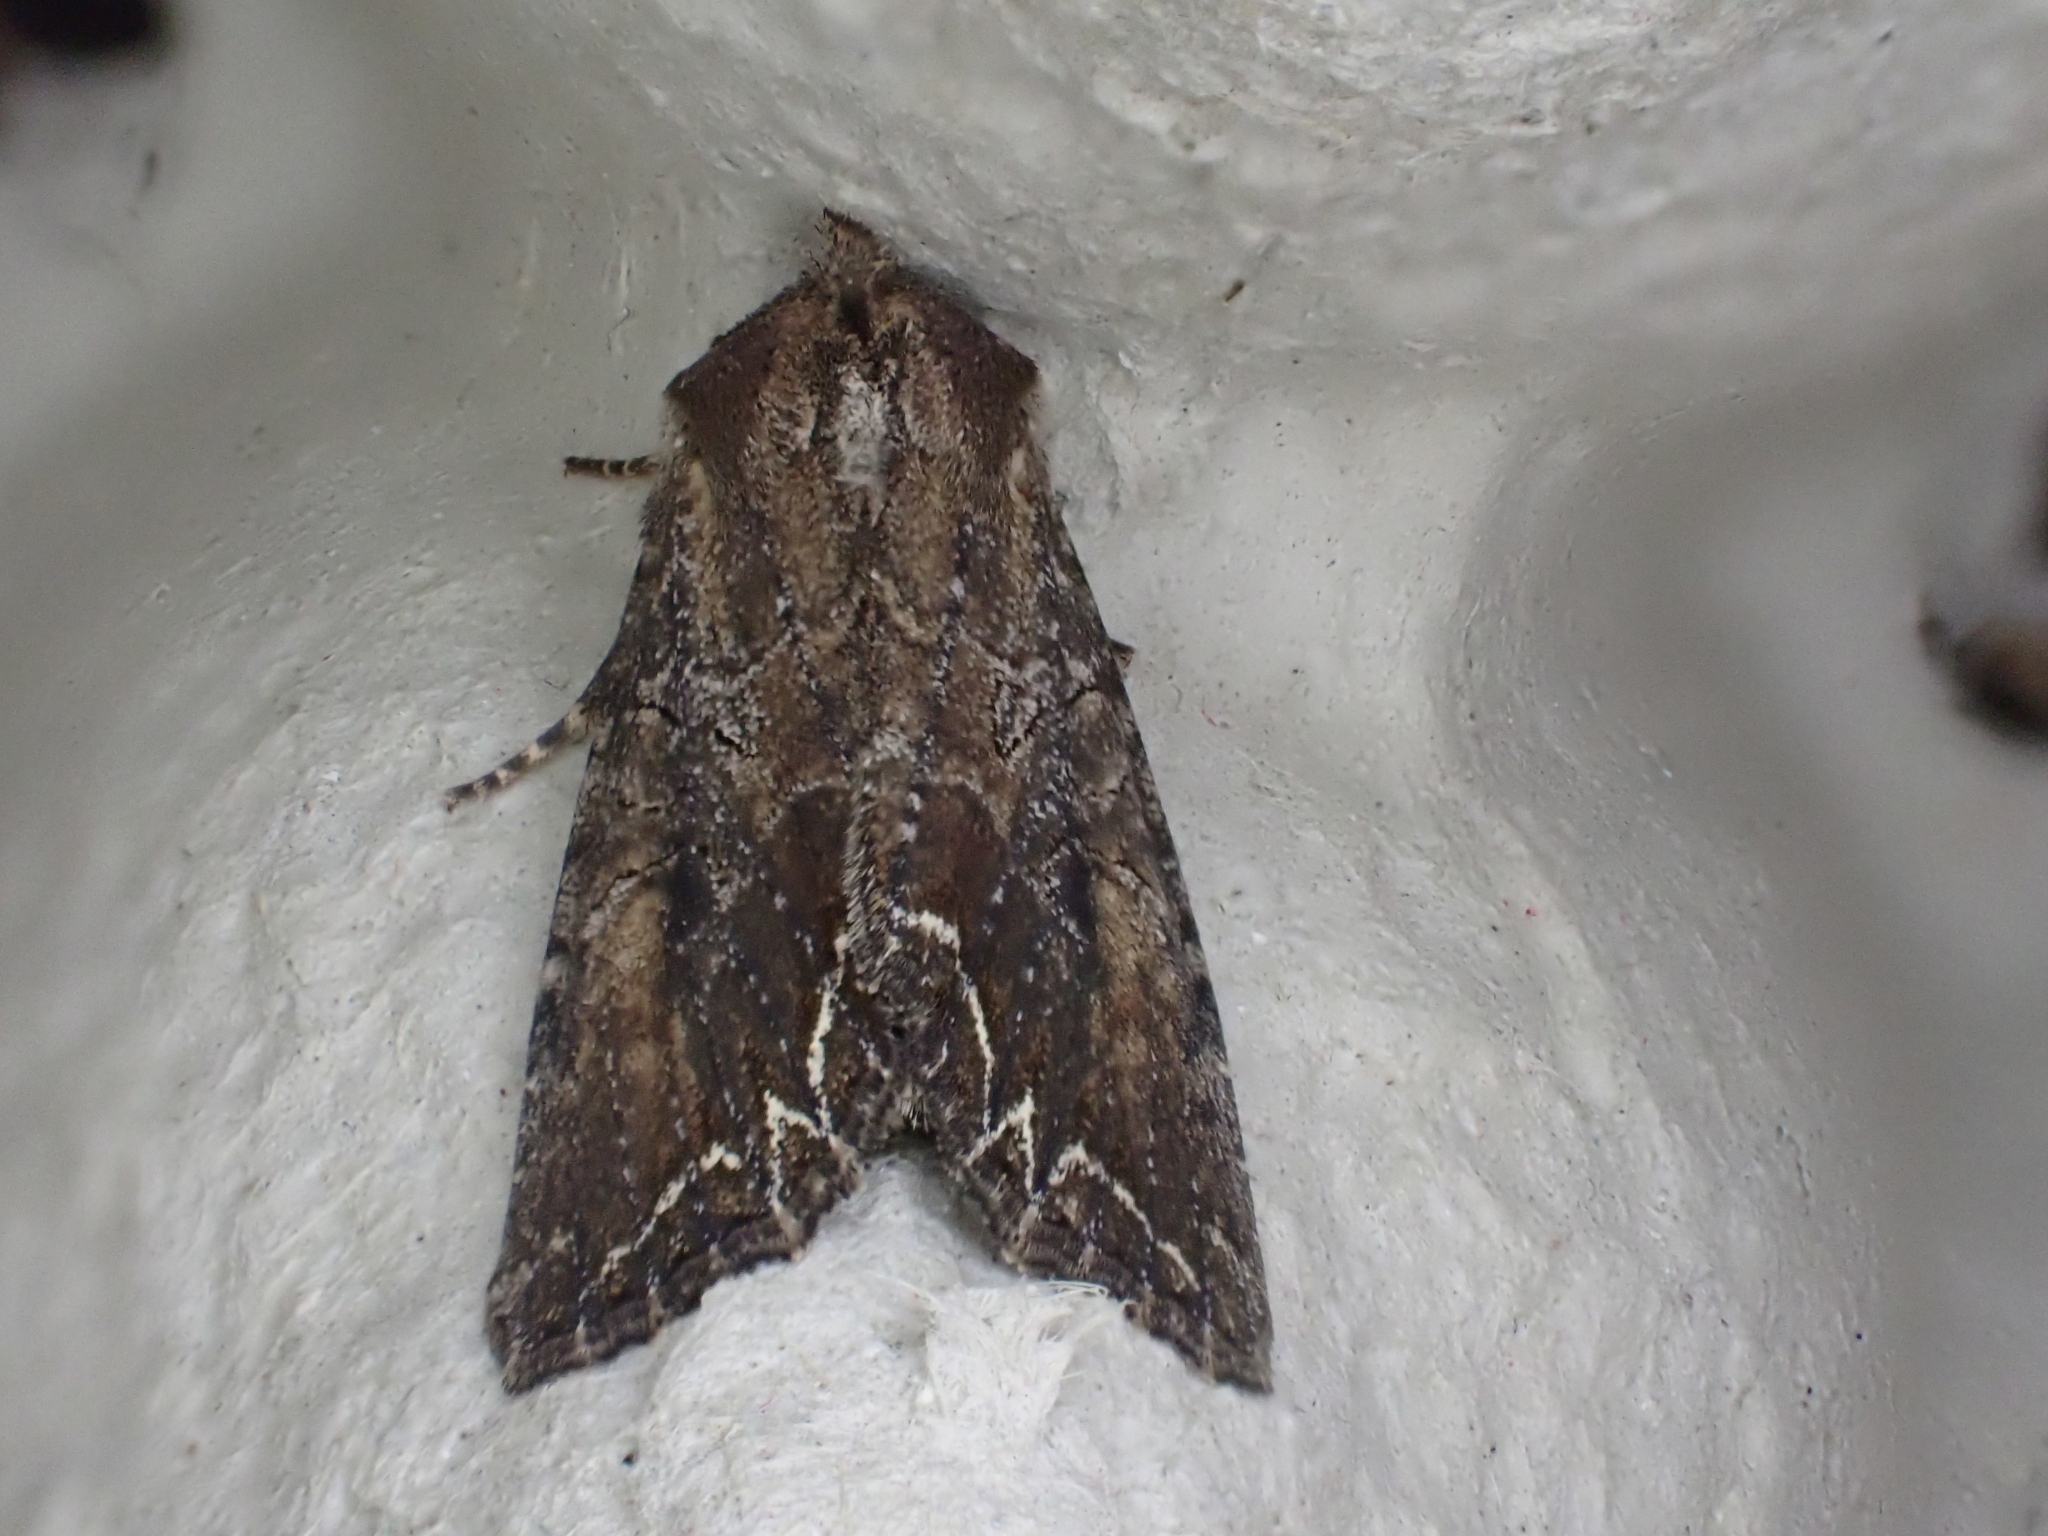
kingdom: Animalia
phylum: Arthropoda
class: Insecta
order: Lepidoptera
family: Noctuidae
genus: Lacanobia
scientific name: Lacanobia suasa
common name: Dog's tooth
